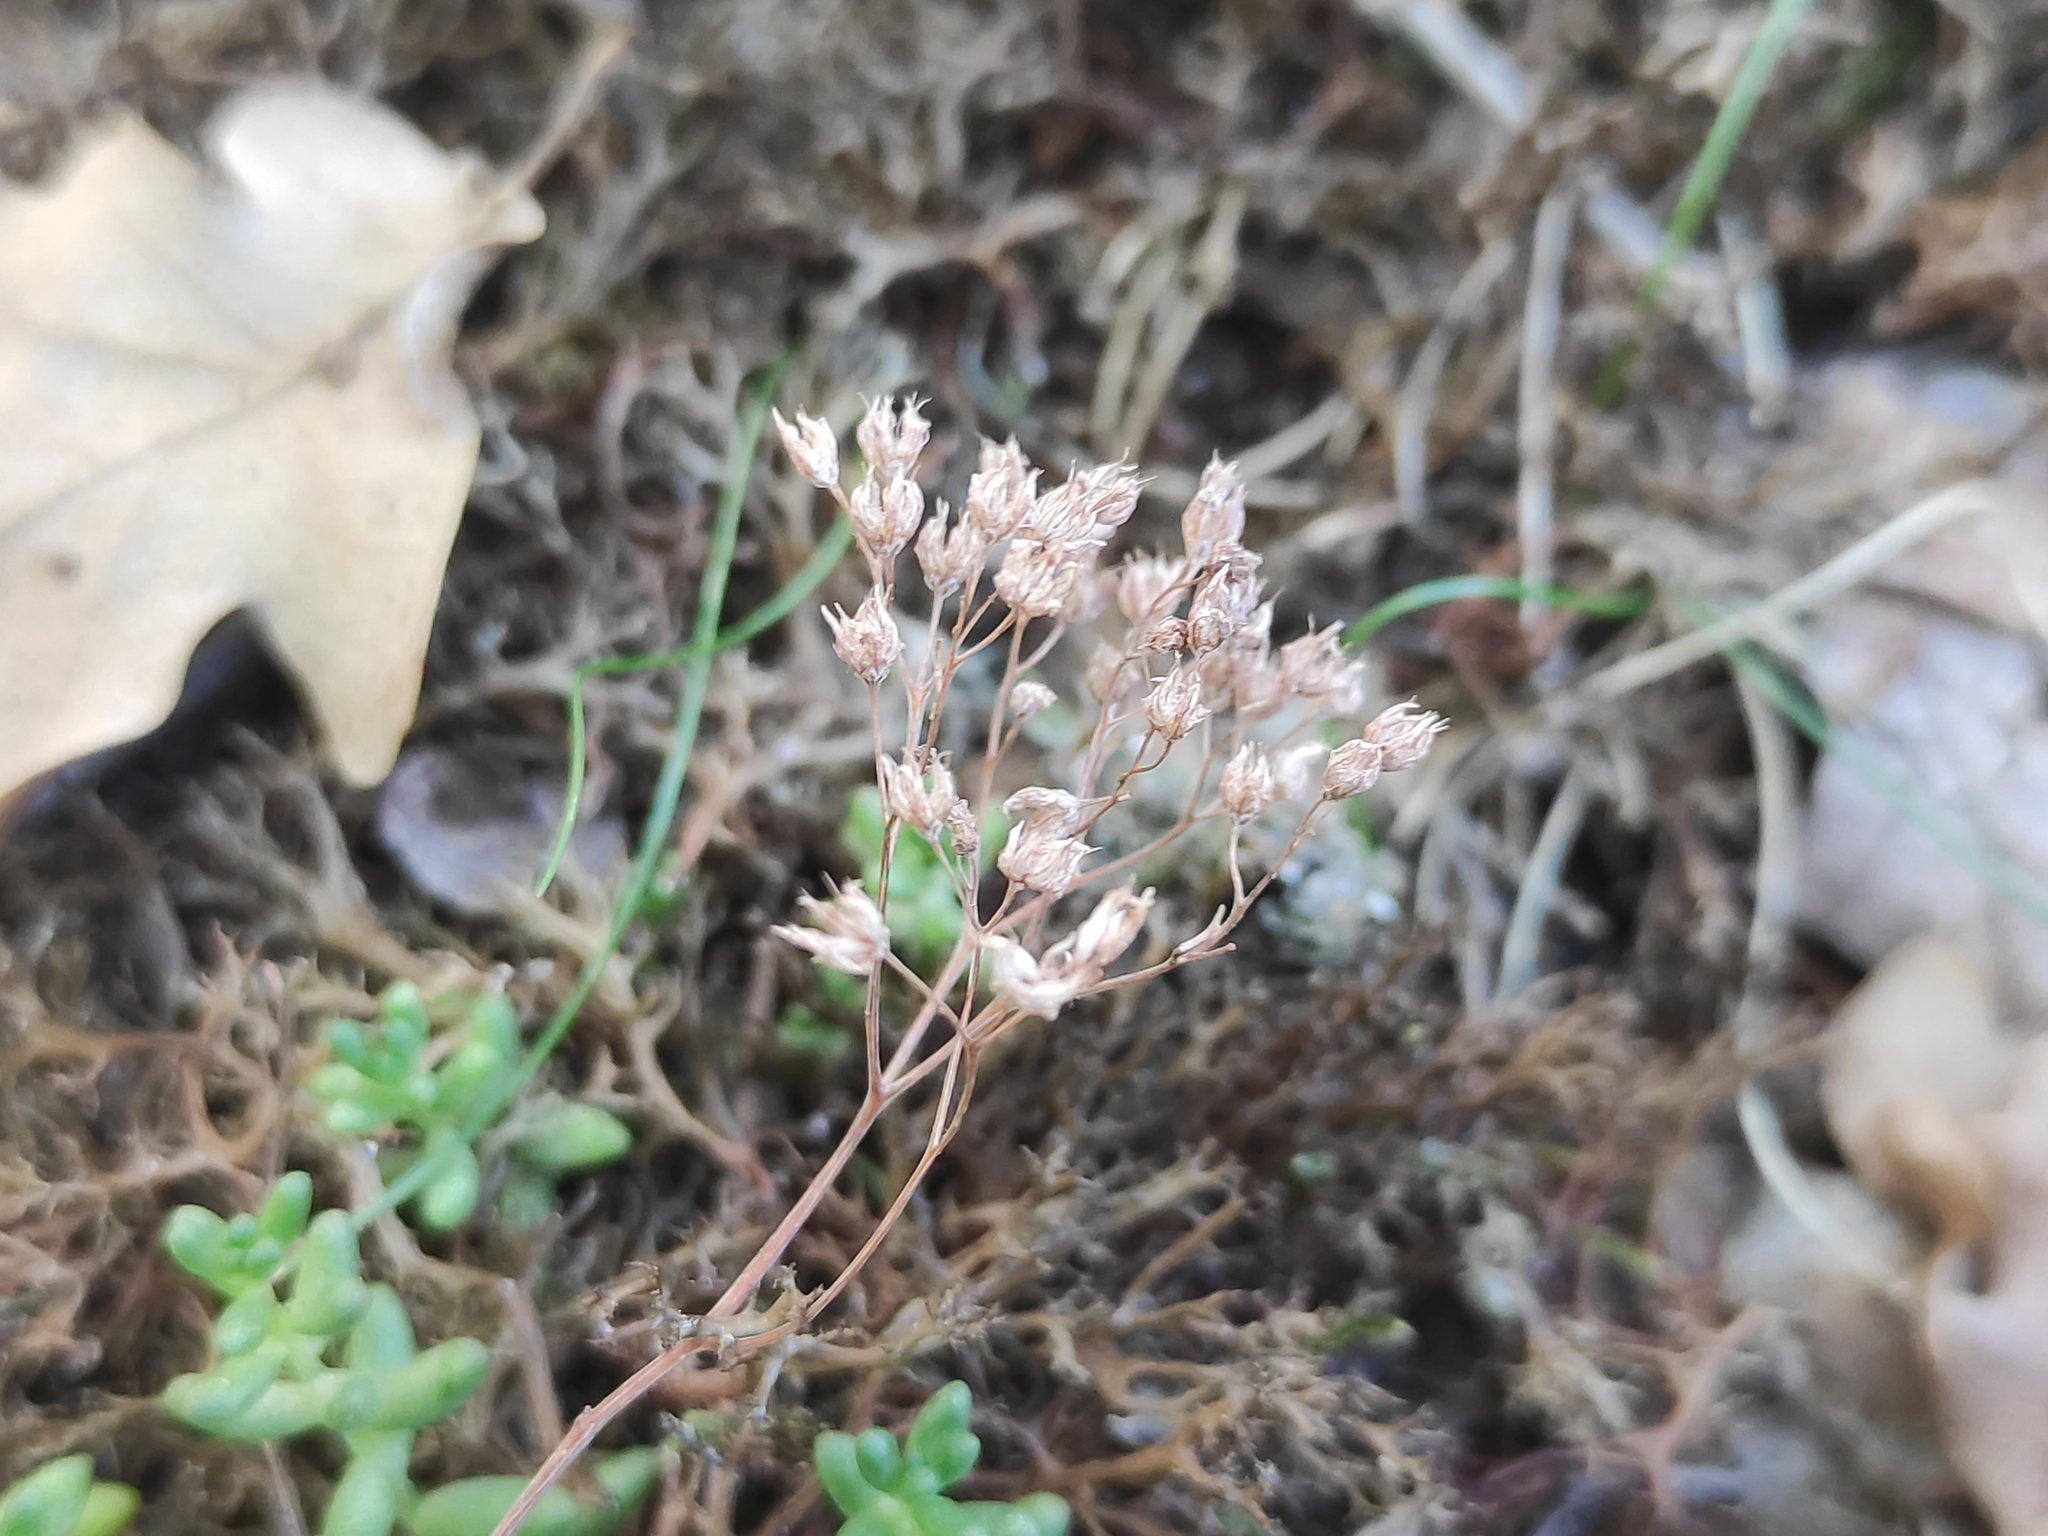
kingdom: Plantae
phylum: Tracheophyta
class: Magnoliopsida
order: Saxifragales
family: Crassulaceae
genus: Sedum
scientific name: Sedum album
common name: White stonecrop
